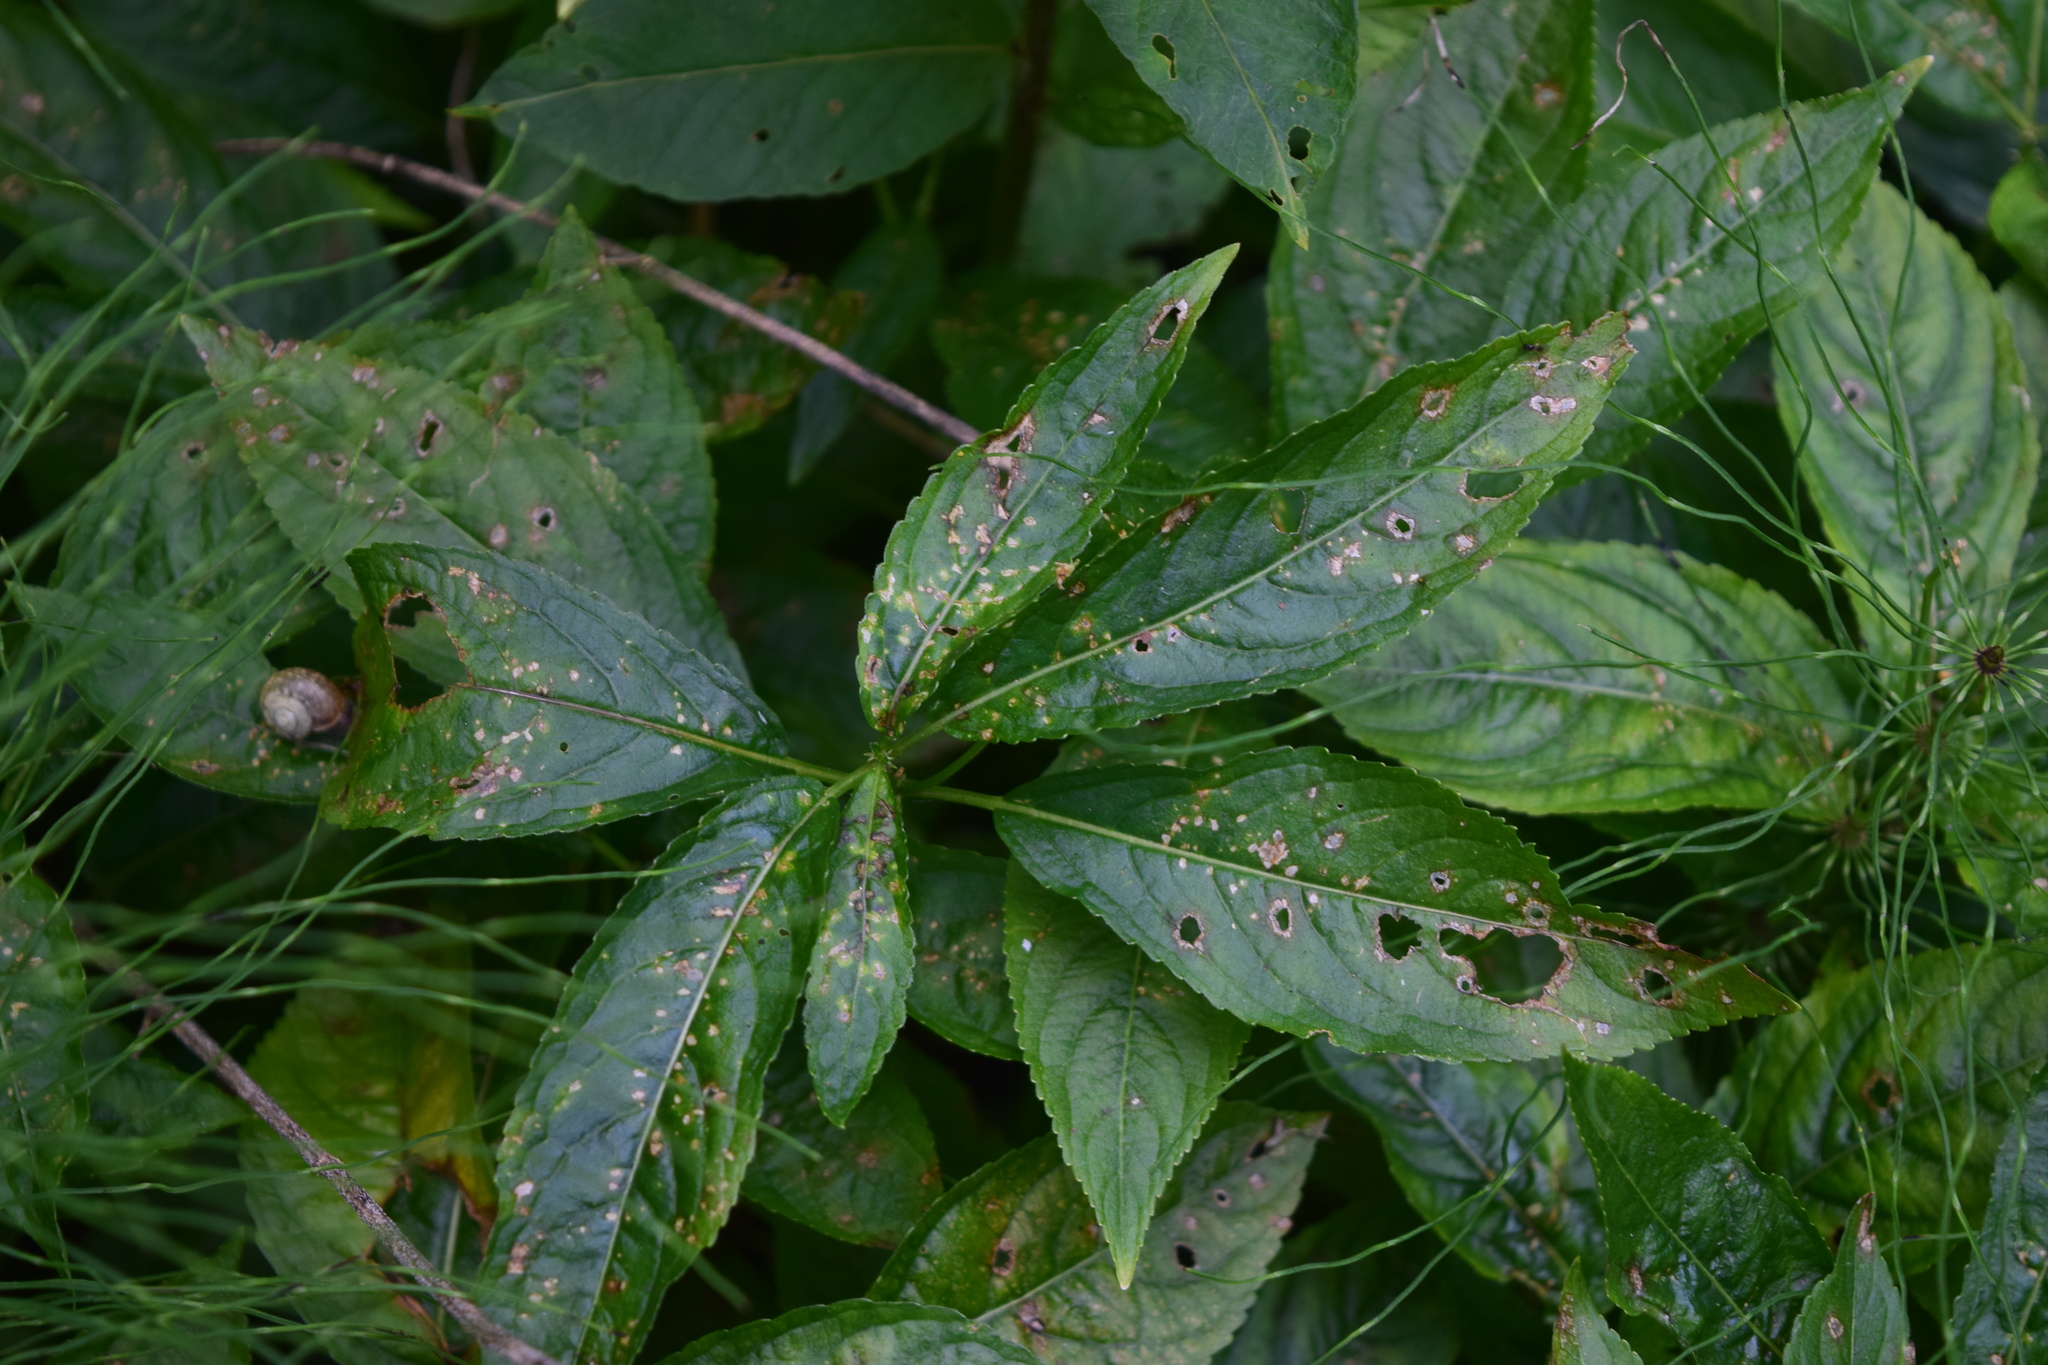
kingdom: Plantae
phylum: Tracheophyta
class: Magnoliopsida
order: Malpighiales
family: Euphorbiaceae
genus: Mercurialis
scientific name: Mercurialis perennis
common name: Dog mercury
